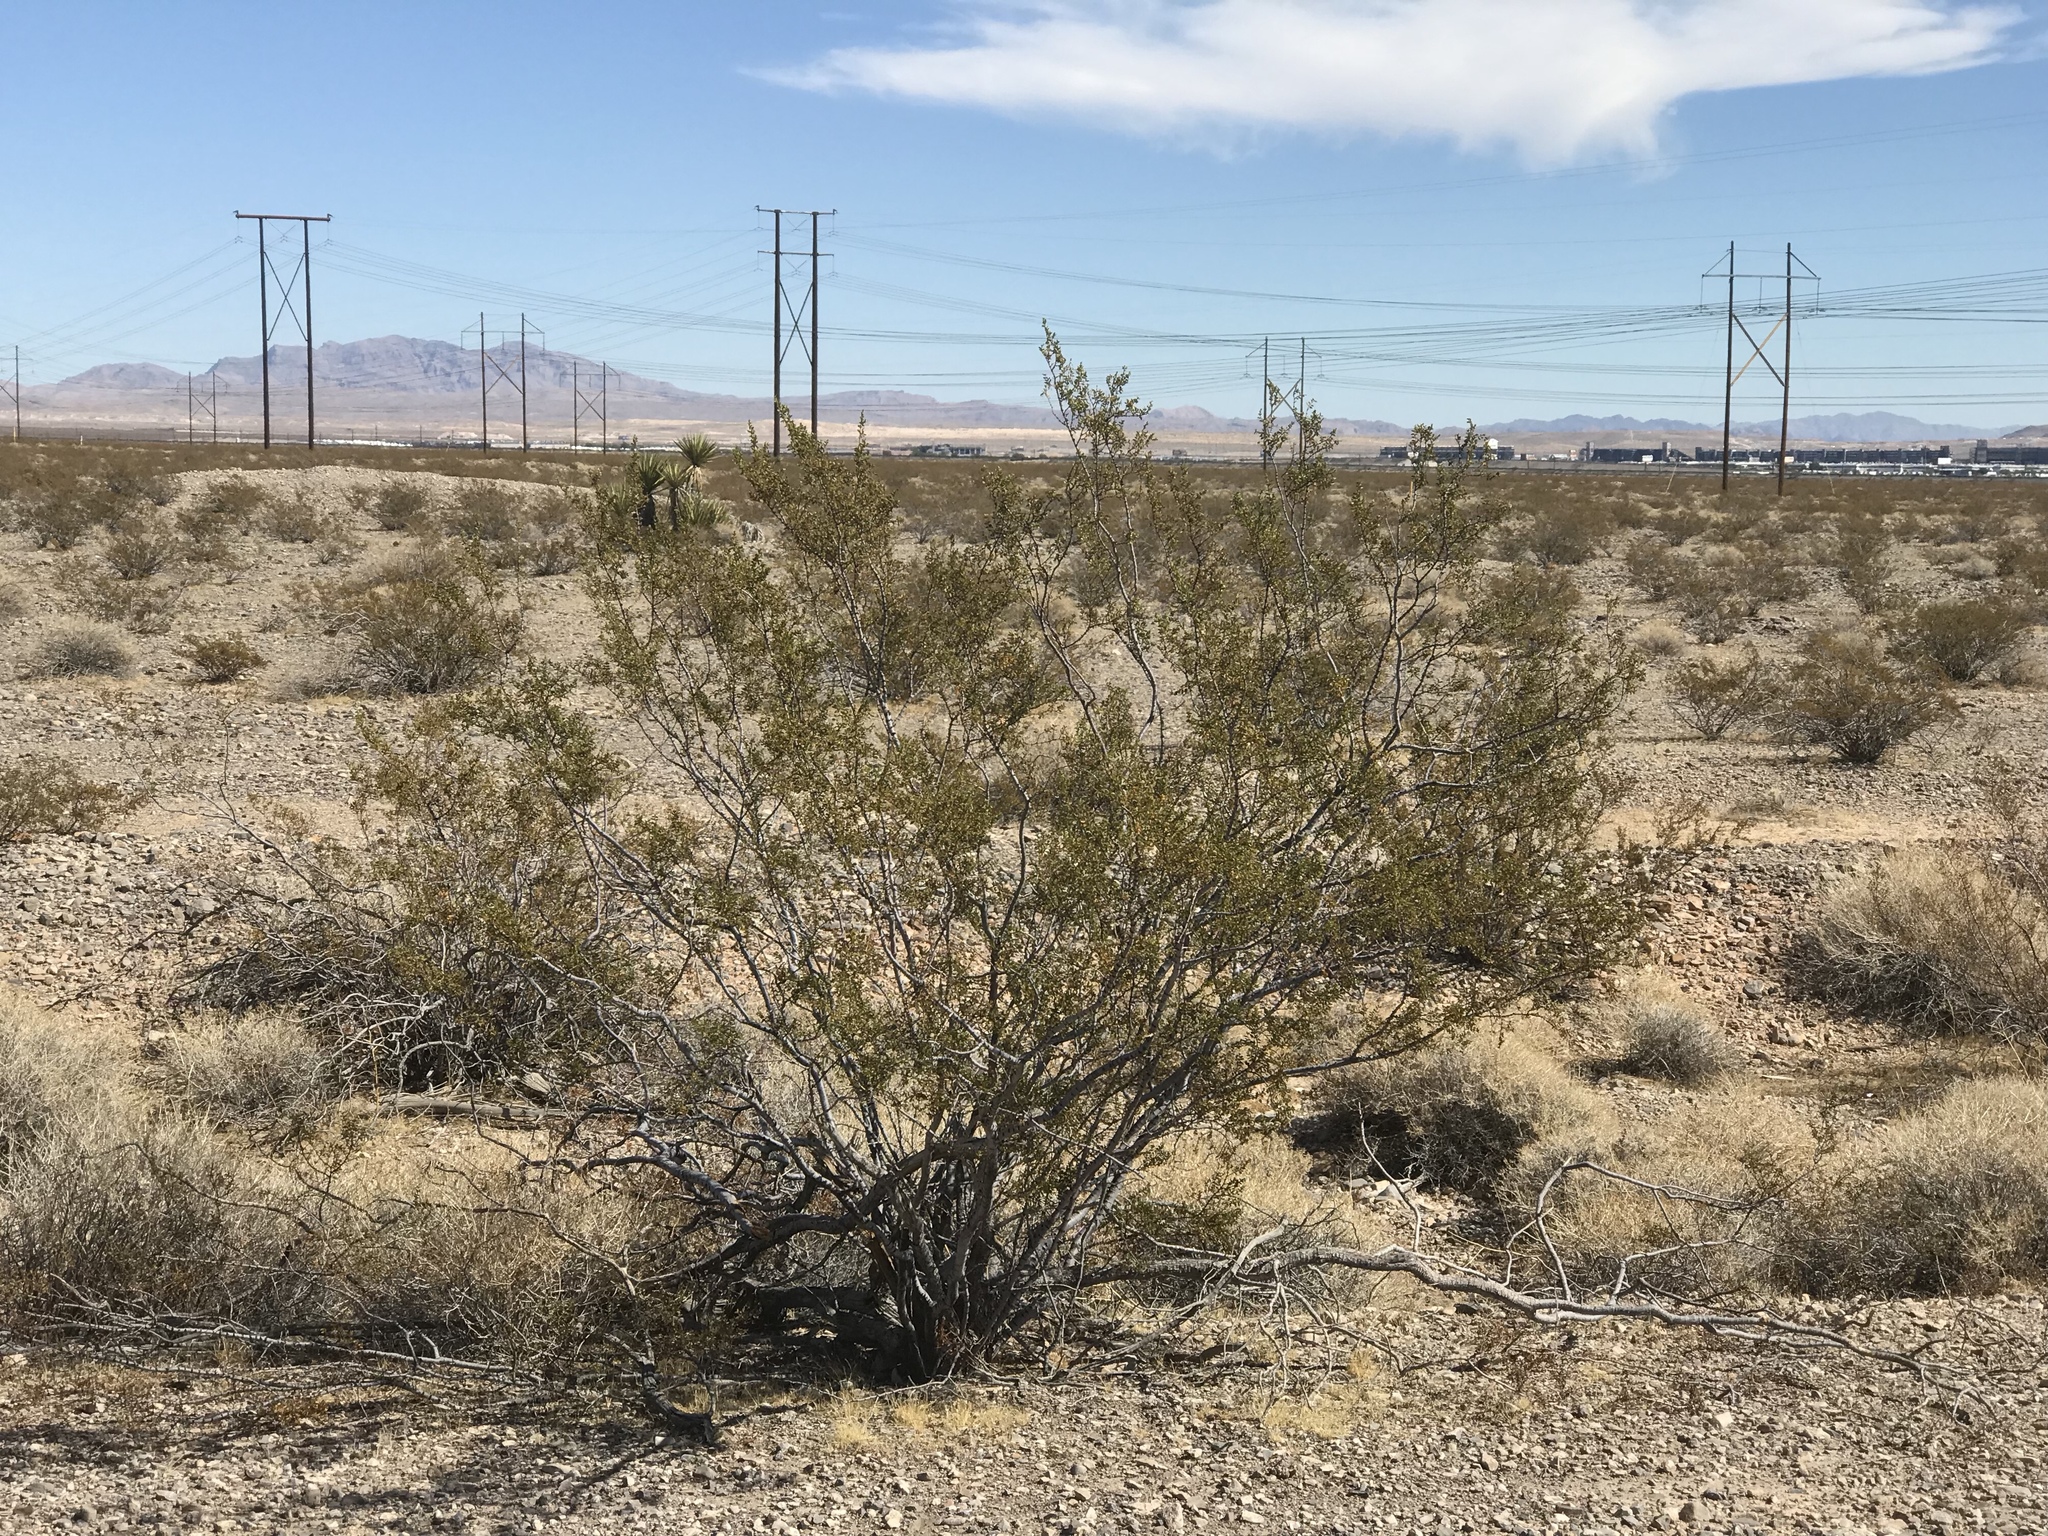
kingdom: Plantae
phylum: Tracheophyta
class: Magnoliopsida
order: Zygophyllales
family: Zygophyllaceae
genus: Larrea
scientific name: Larrea tridentata
